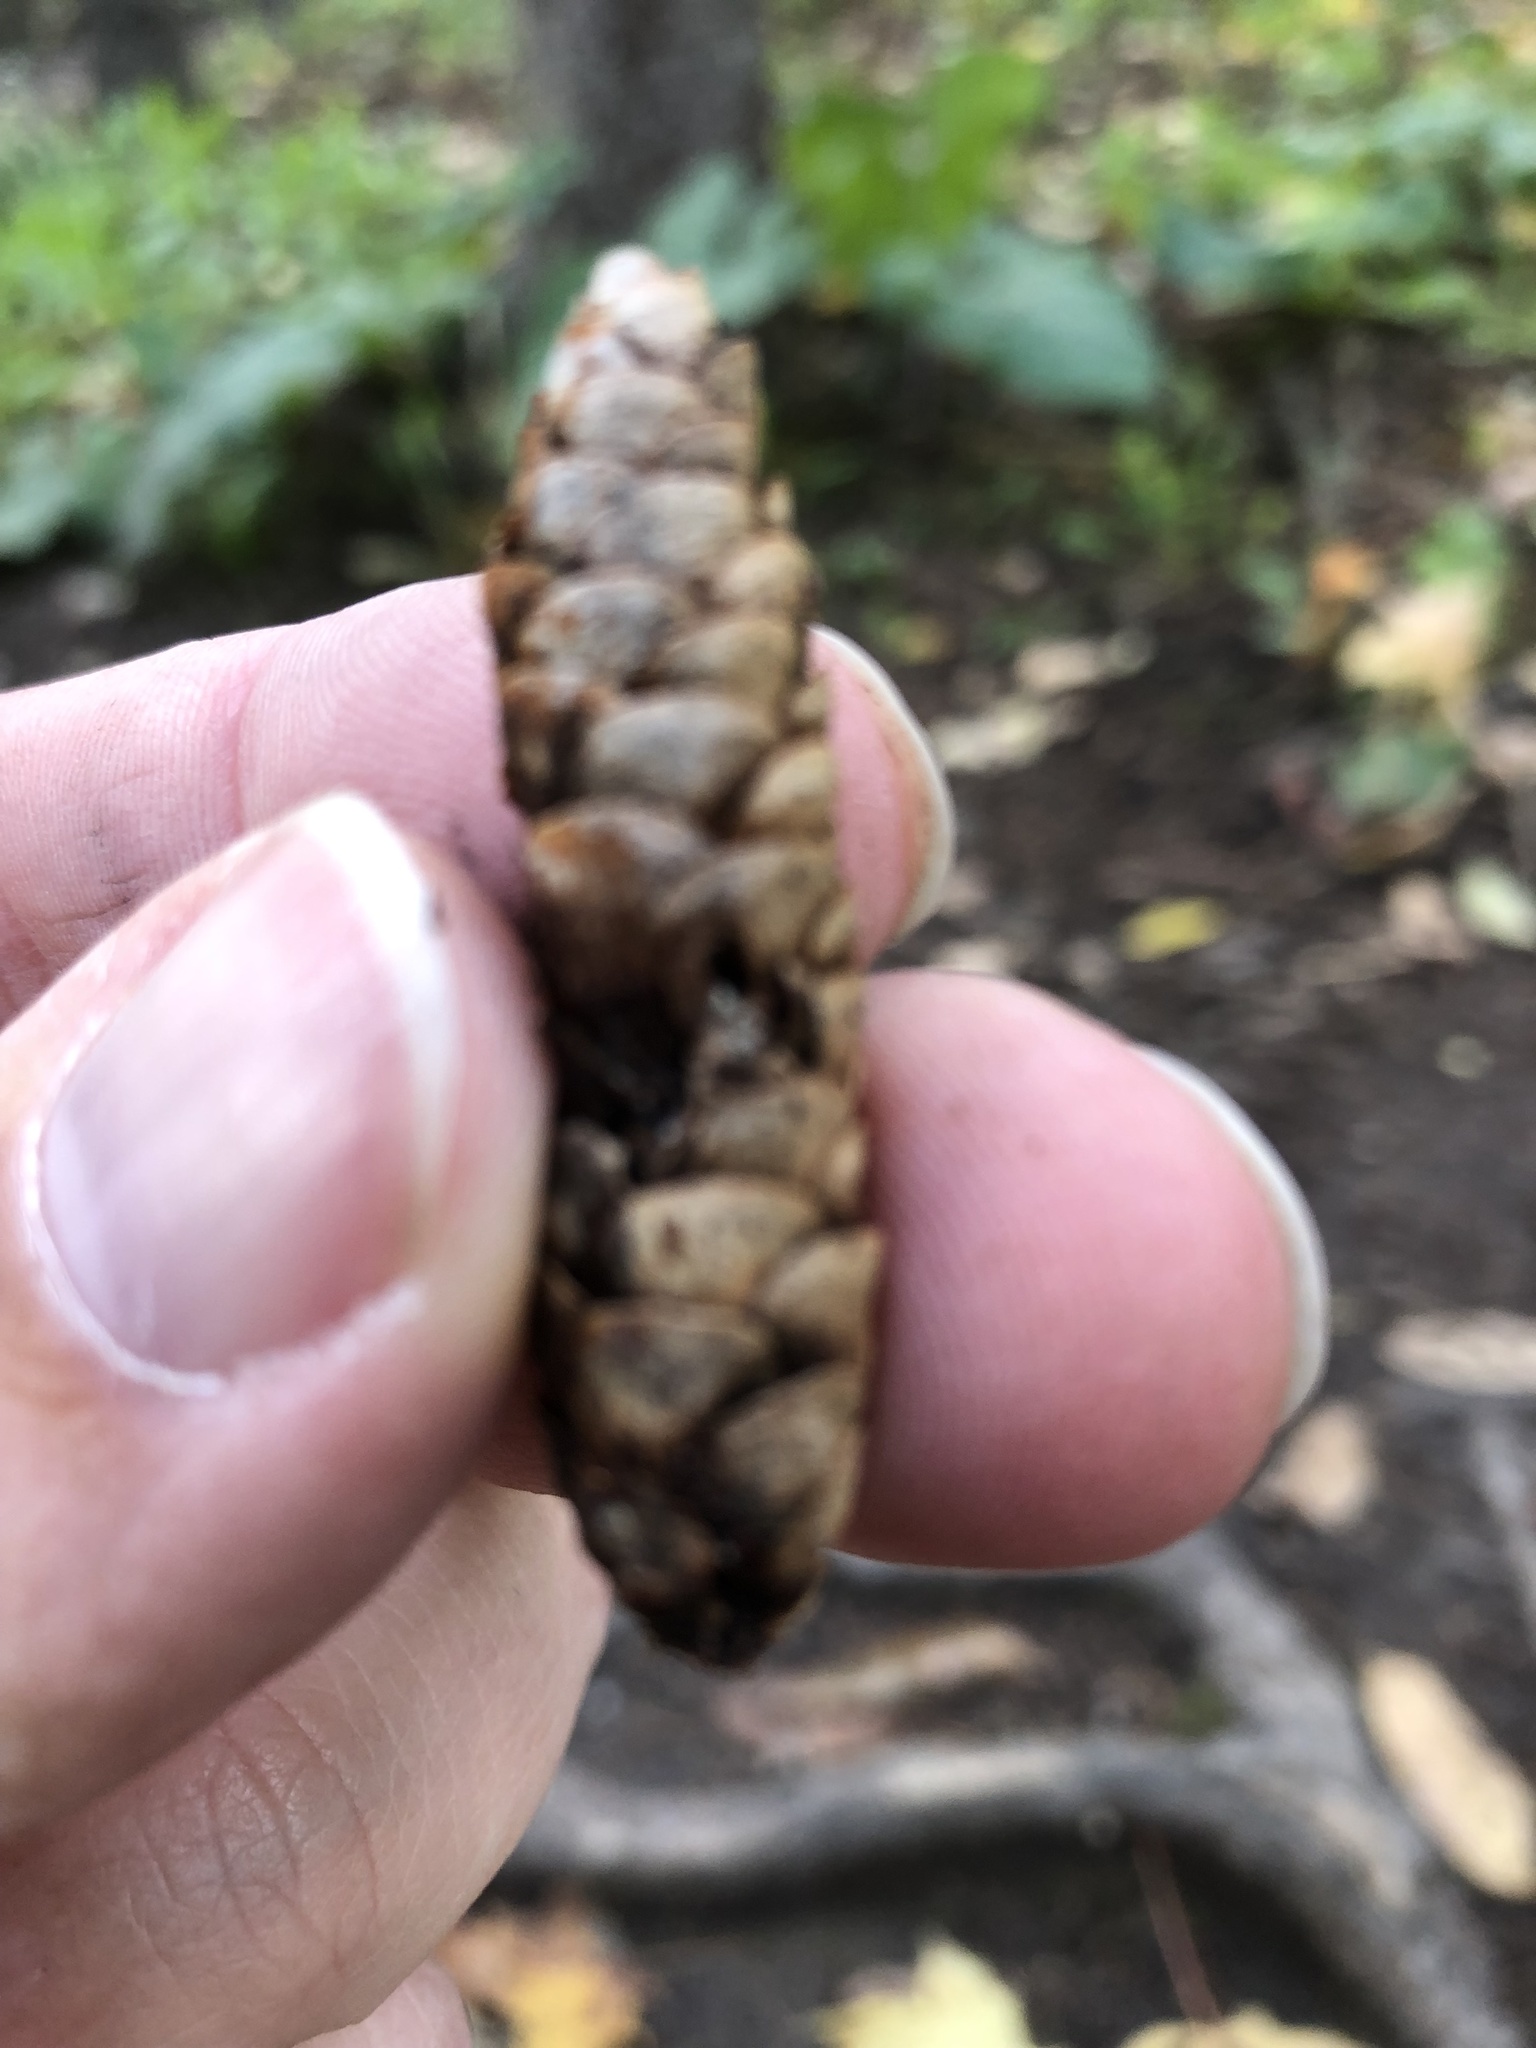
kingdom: Plantae
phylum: Tracheophyta
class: Pinopsida
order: Pinales
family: Pinaceae
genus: Picea
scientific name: Picea glauca
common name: White spruce
